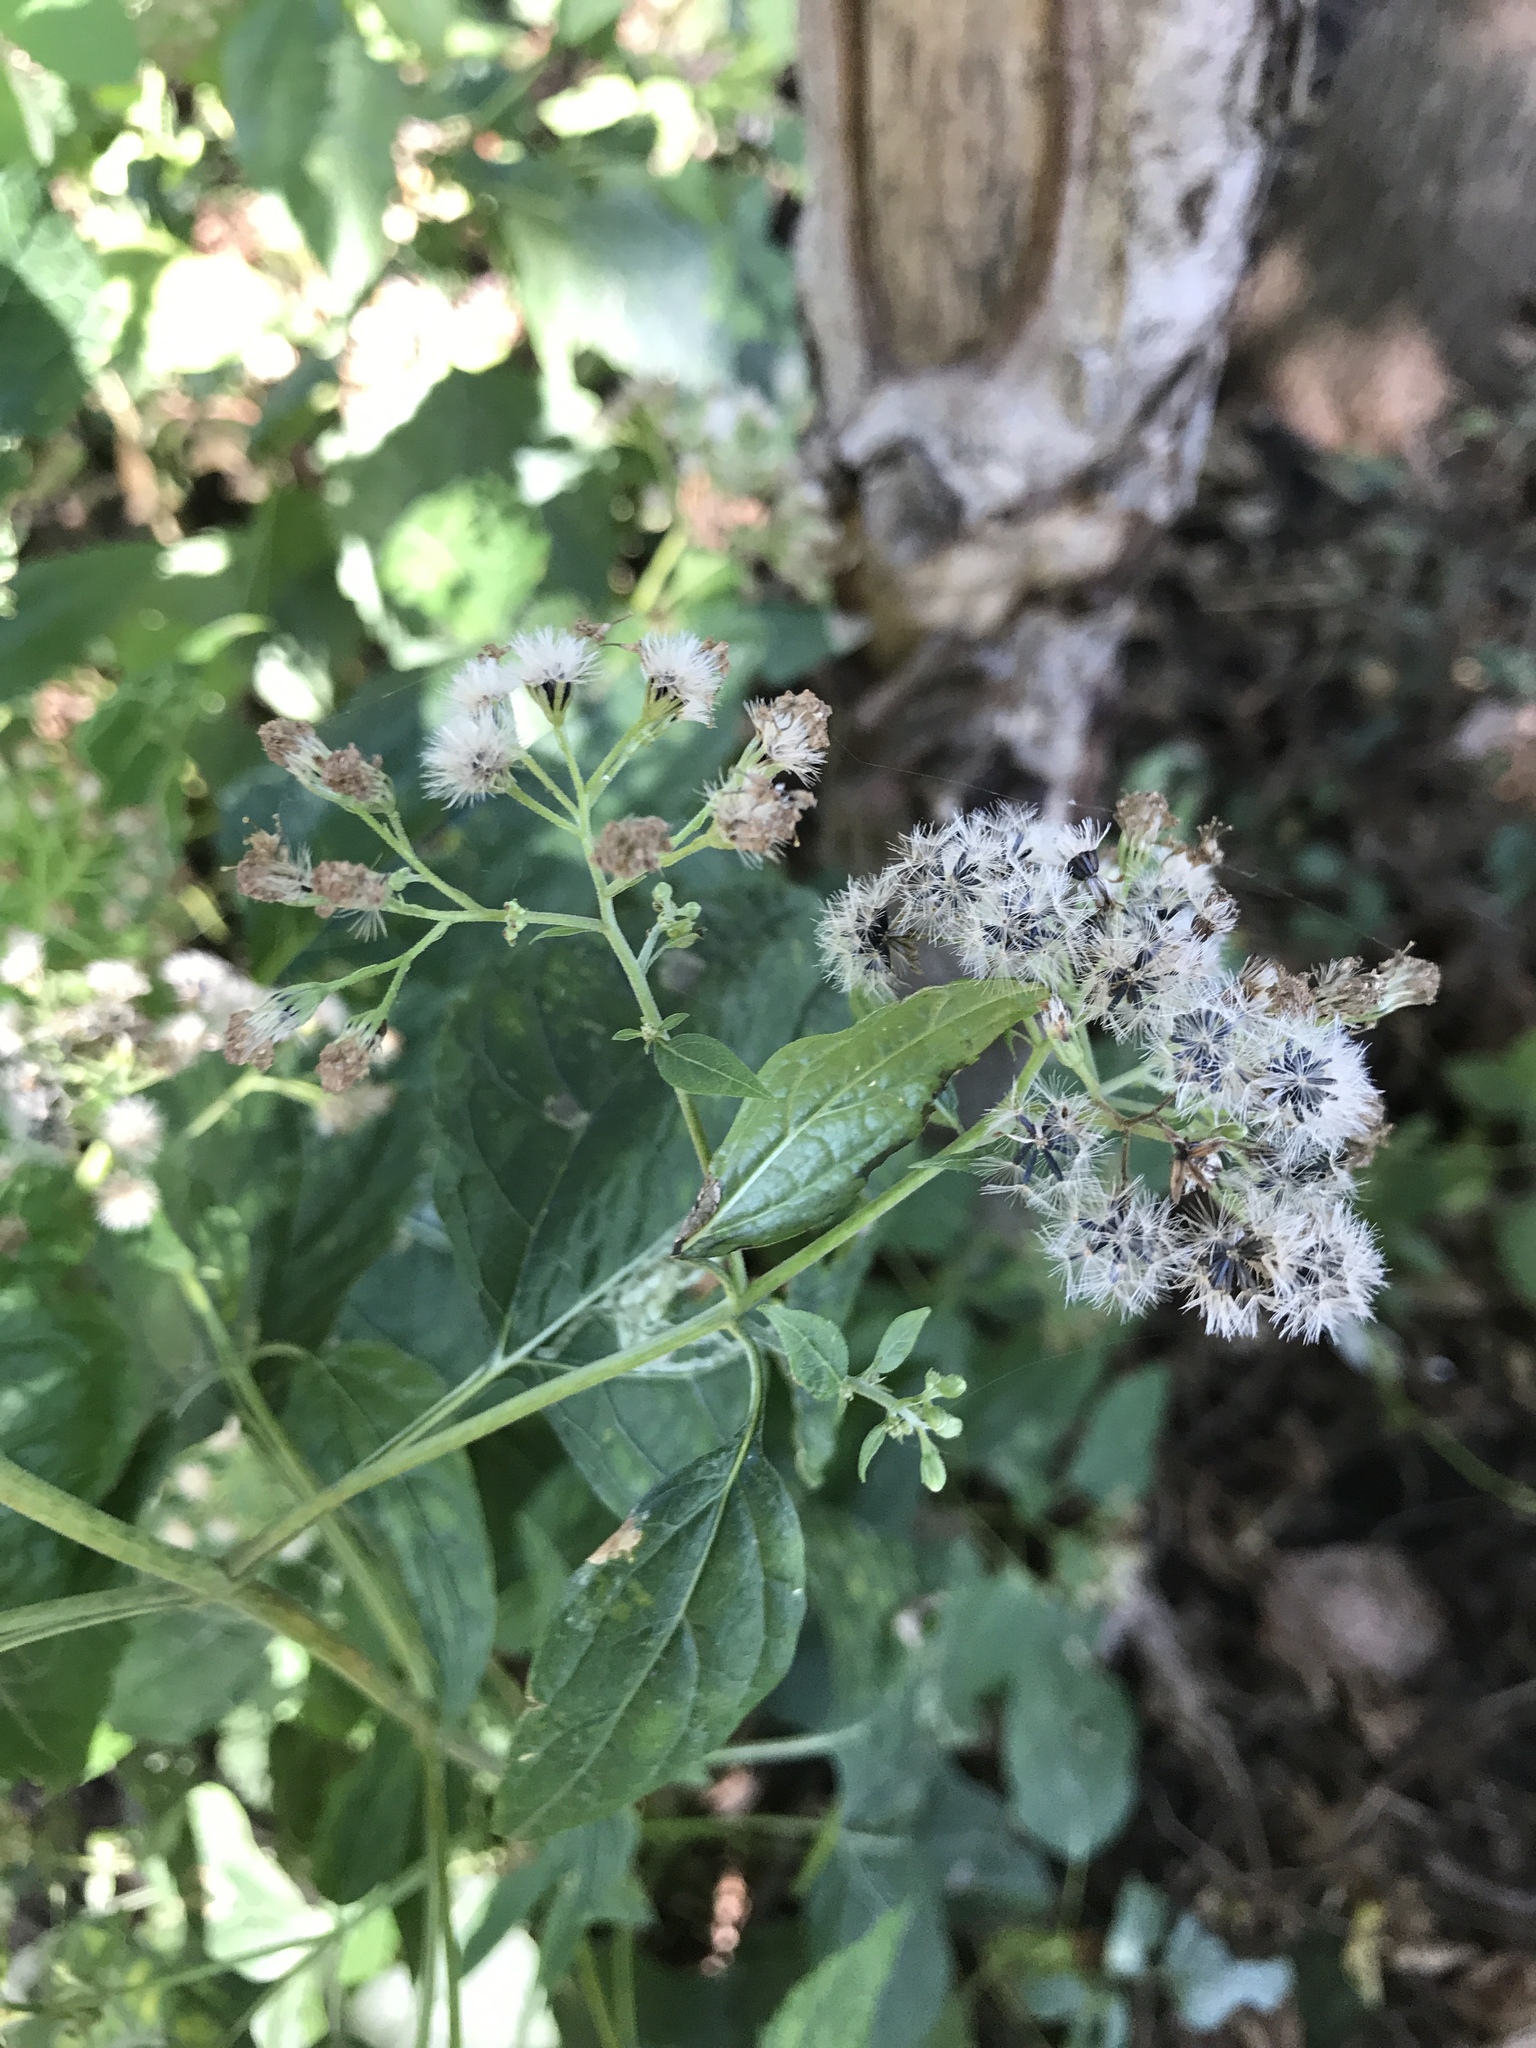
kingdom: Plantae
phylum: Tracheophyta
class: Magnoliopsida
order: Asterales
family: Asteraceae
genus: Ageratina
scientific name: Ageratina altissima
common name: White snakeroot
